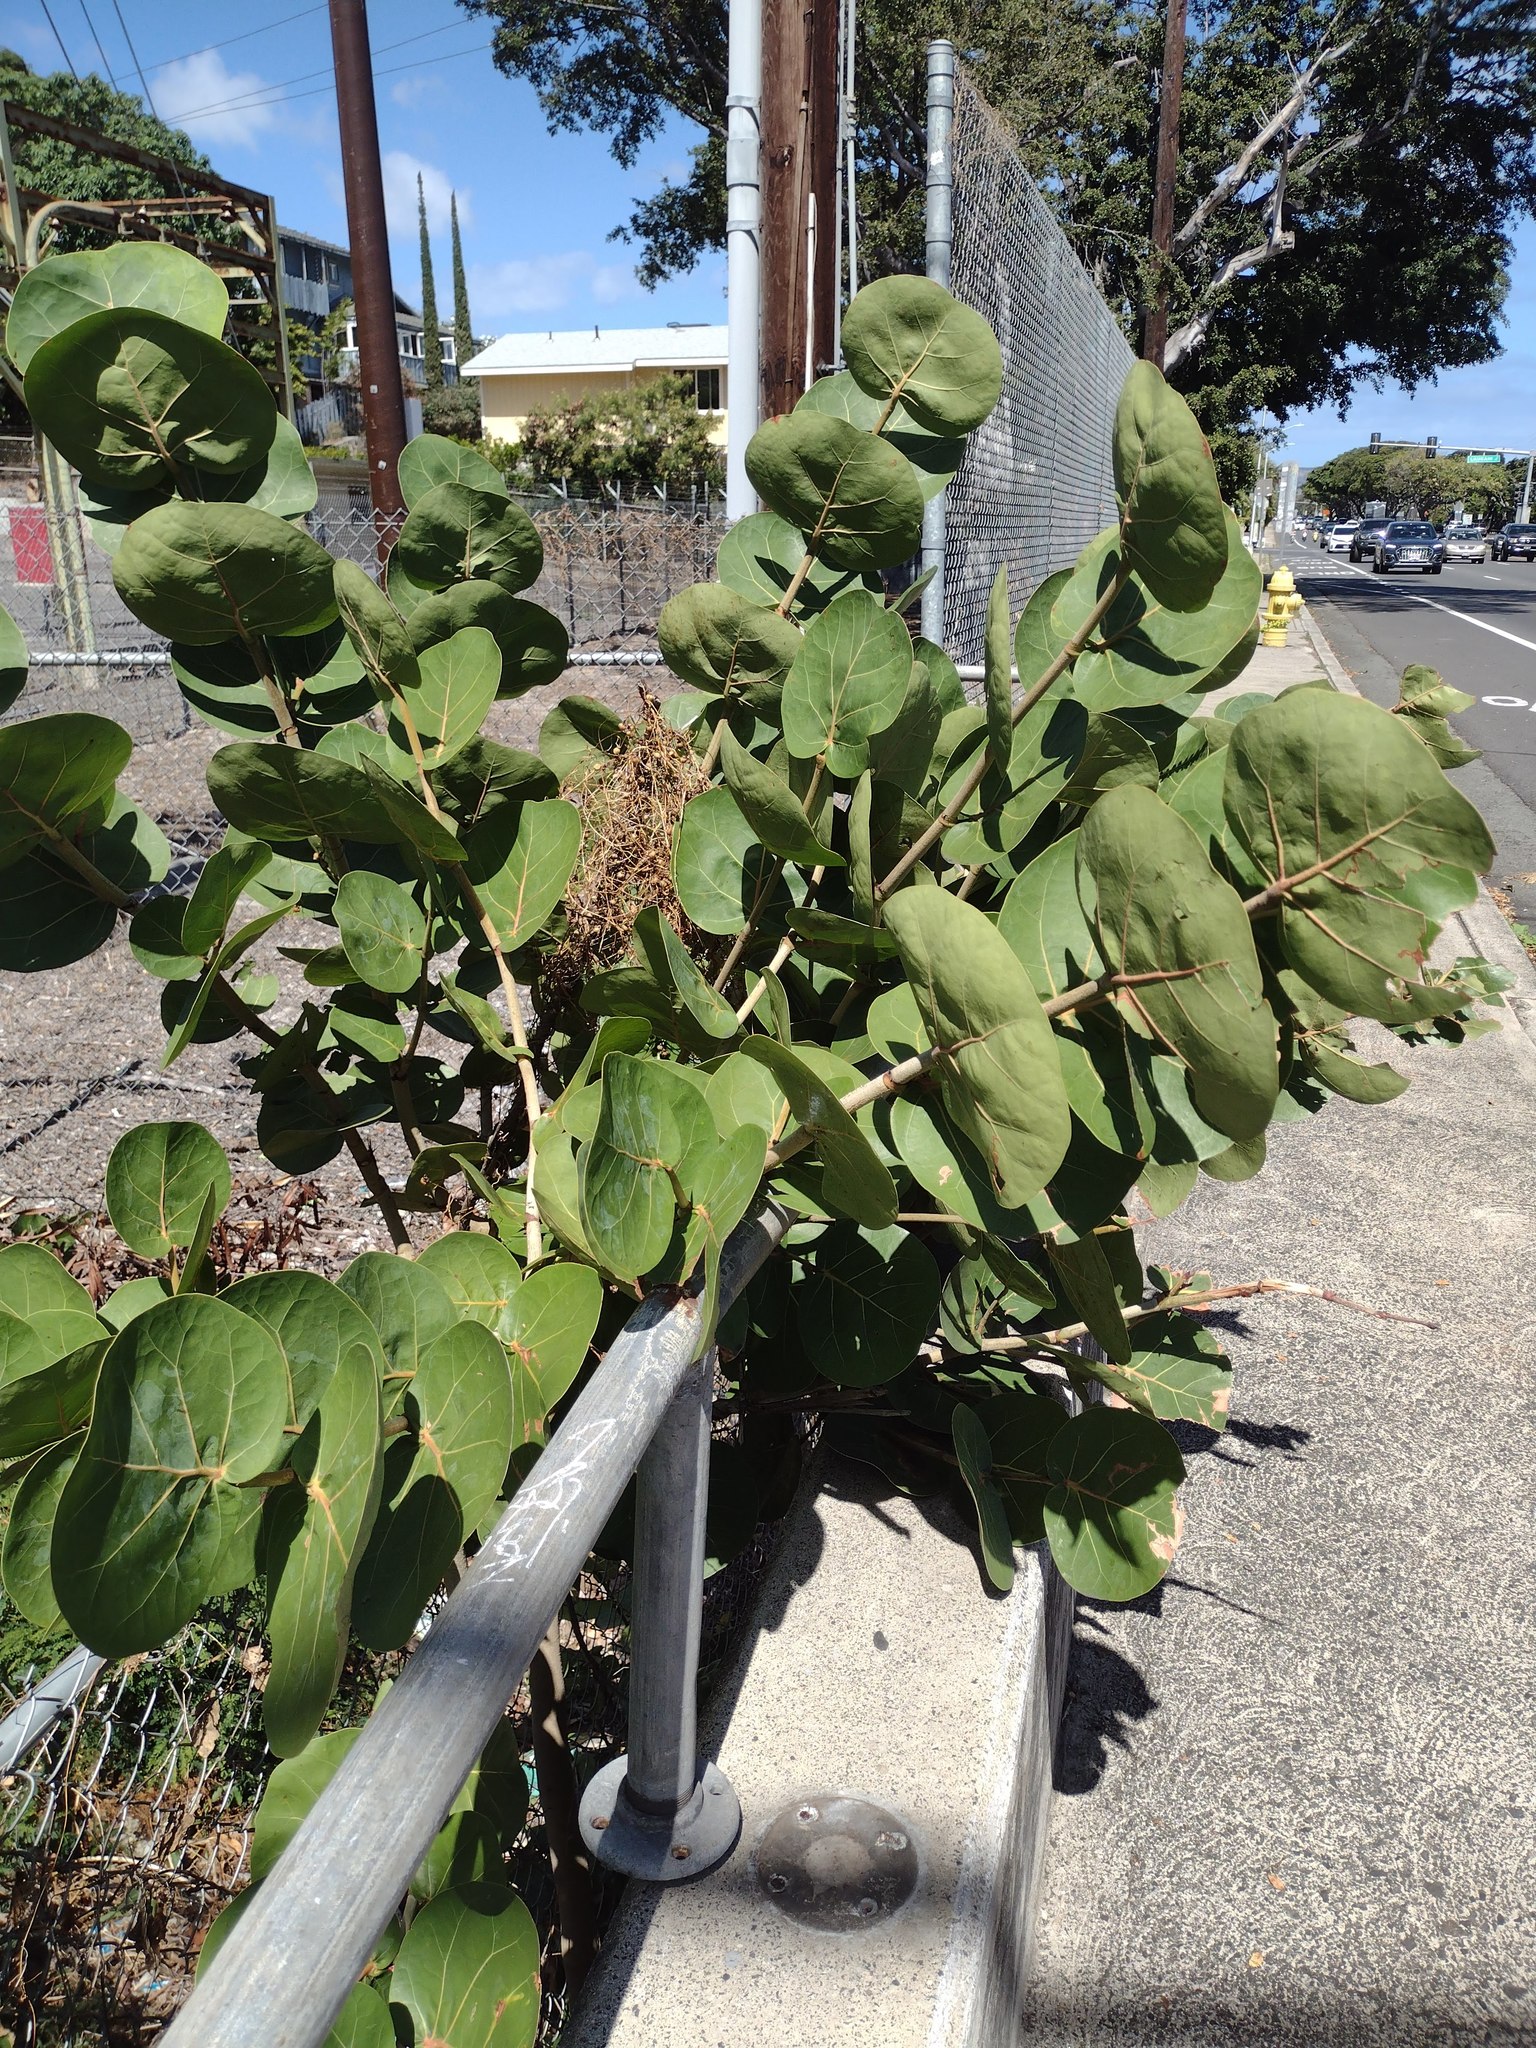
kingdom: Plantae
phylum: Tracheophyta
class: Magnoliopsida
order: Caryophyllales
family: Polygonaceae
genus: Coccoloba
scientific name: Coccoloba uvifera
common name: Seagrape
